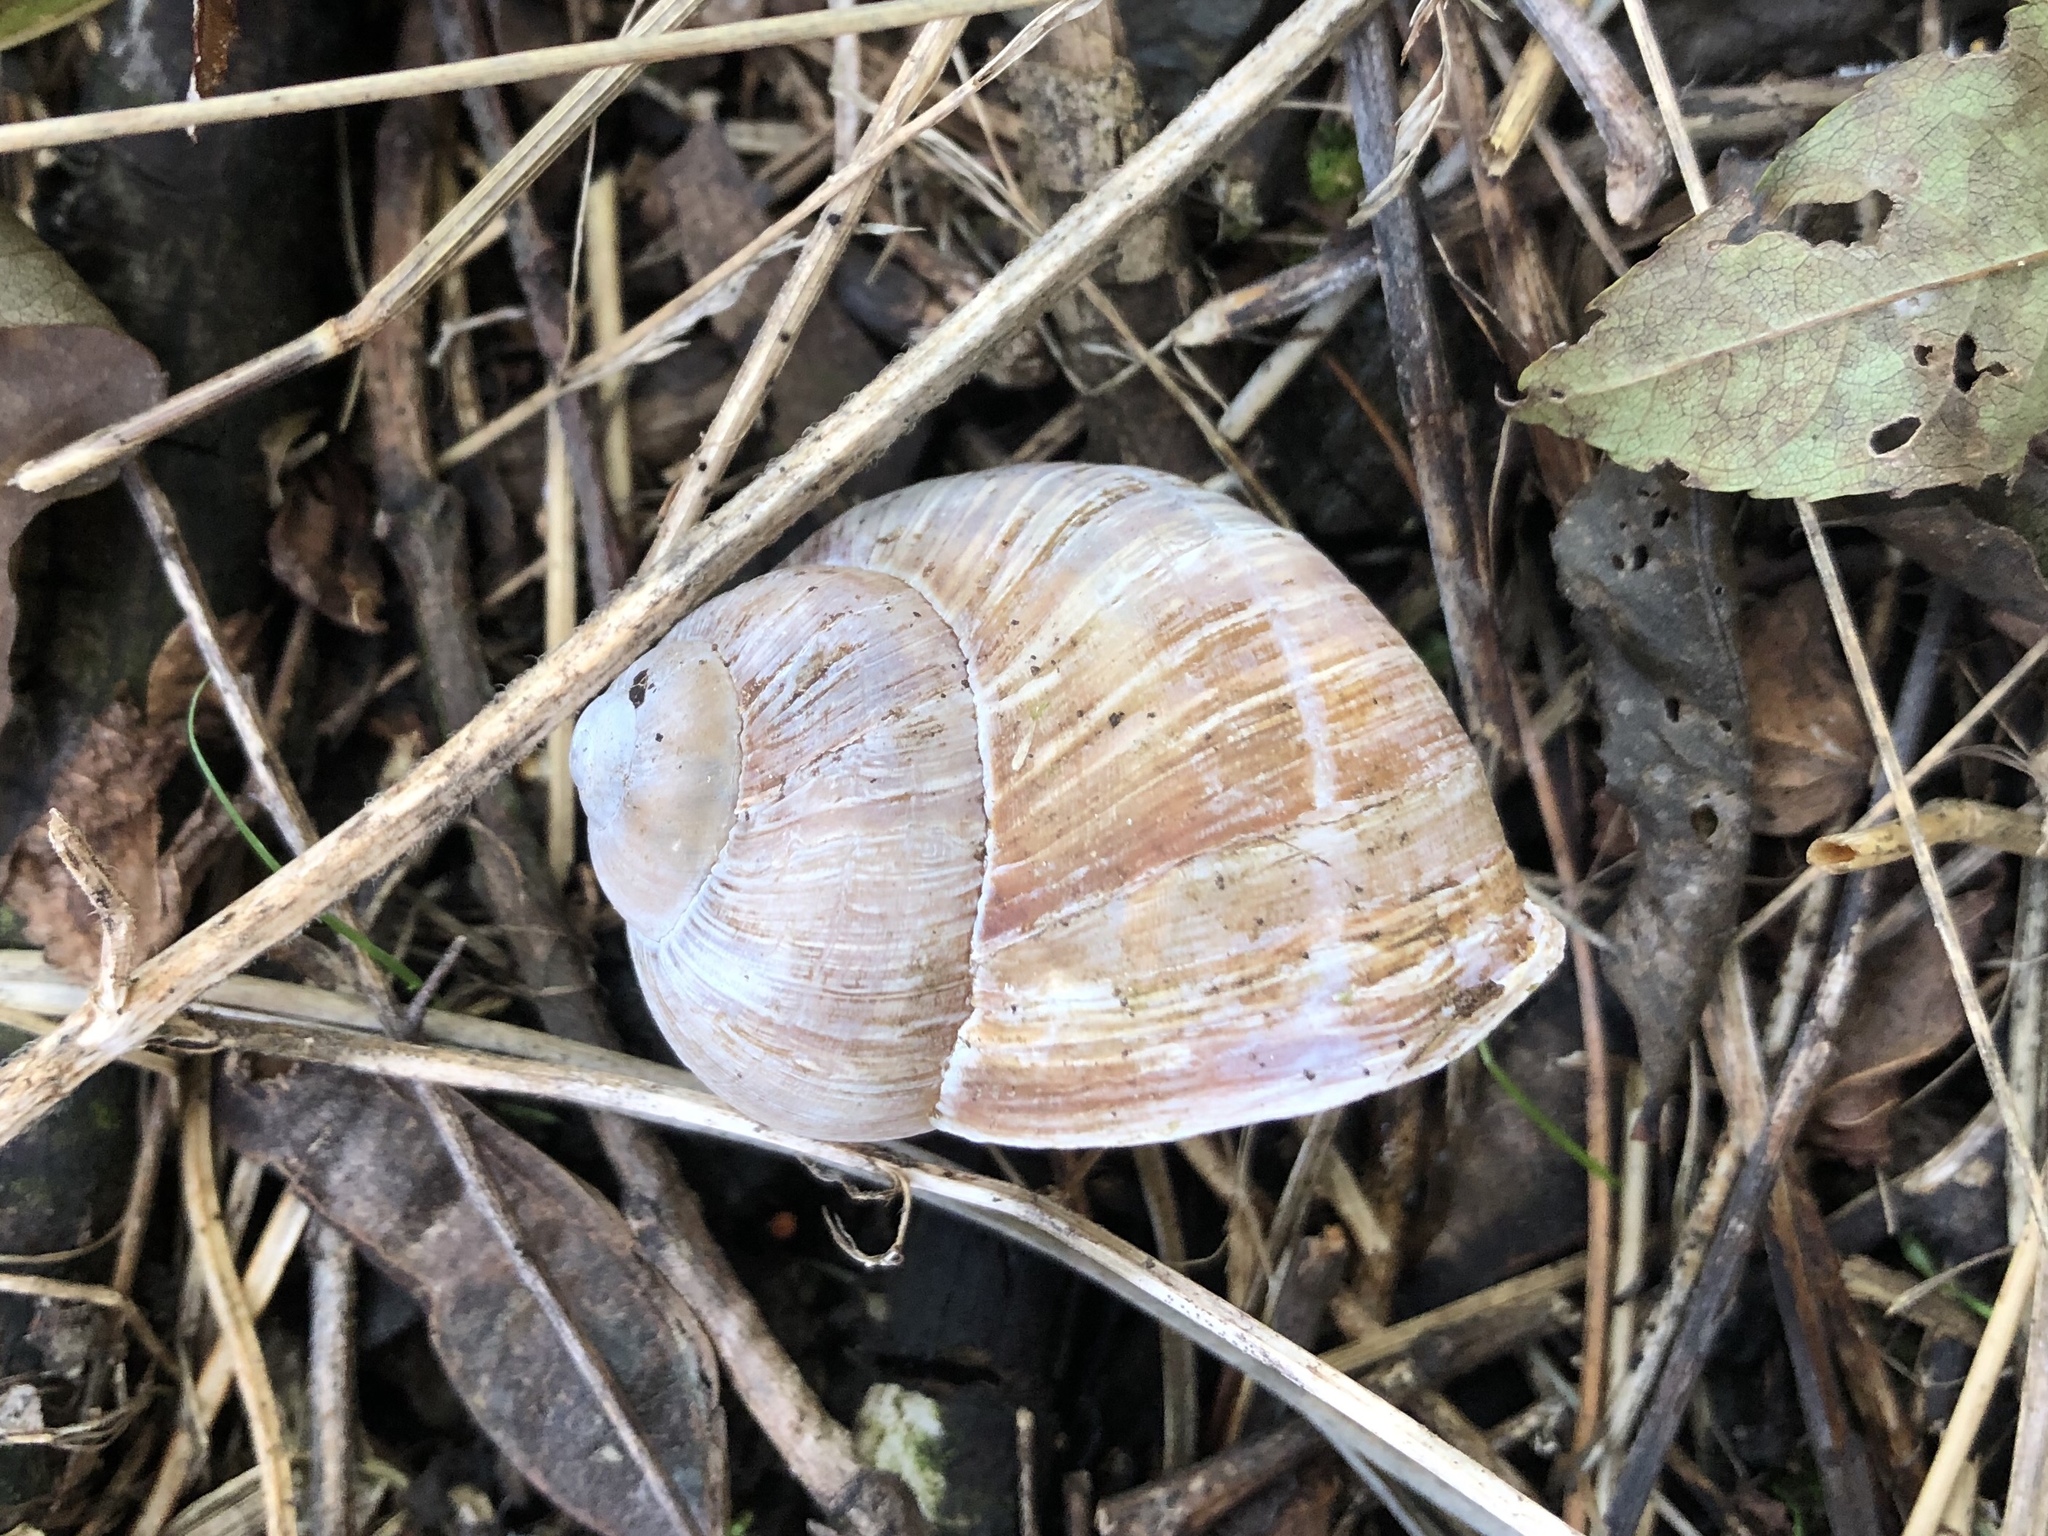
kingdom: Animalia
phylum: Mollusca
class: Gastropoda
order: Stylommatophora
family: Helicidae
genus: Helix
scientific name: Helix pomatia
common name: Roman snail
